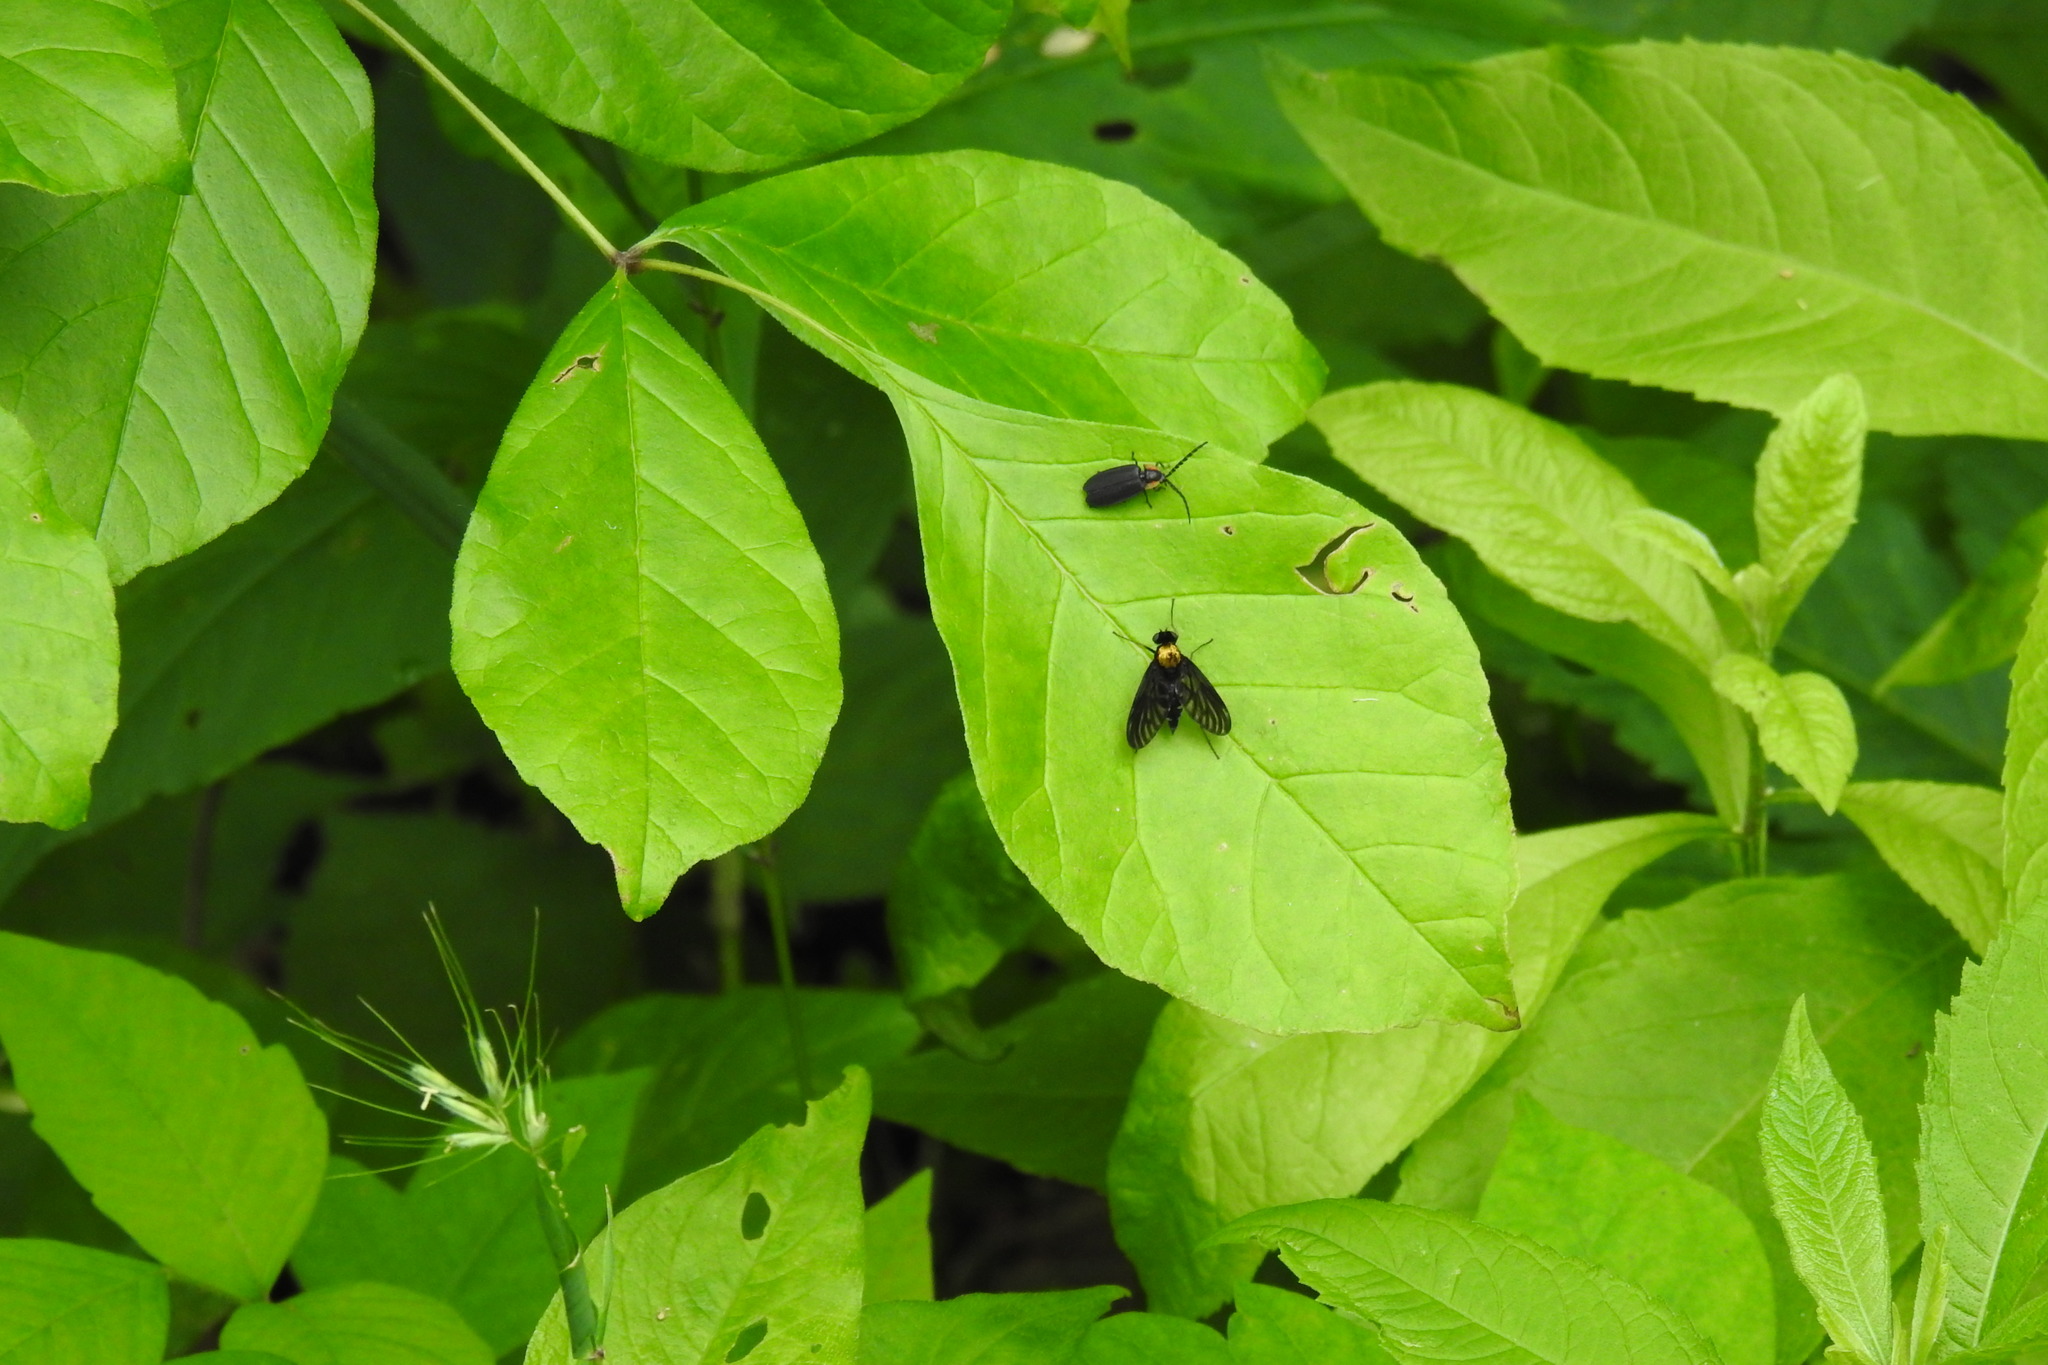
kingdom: Animalia
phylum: Arthropoda
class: Insecta
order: Diptera
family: Rhagionidae
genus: Chrysopilus
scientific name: Chrysopilus thoracicus
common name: Golden-backed snipe fly
